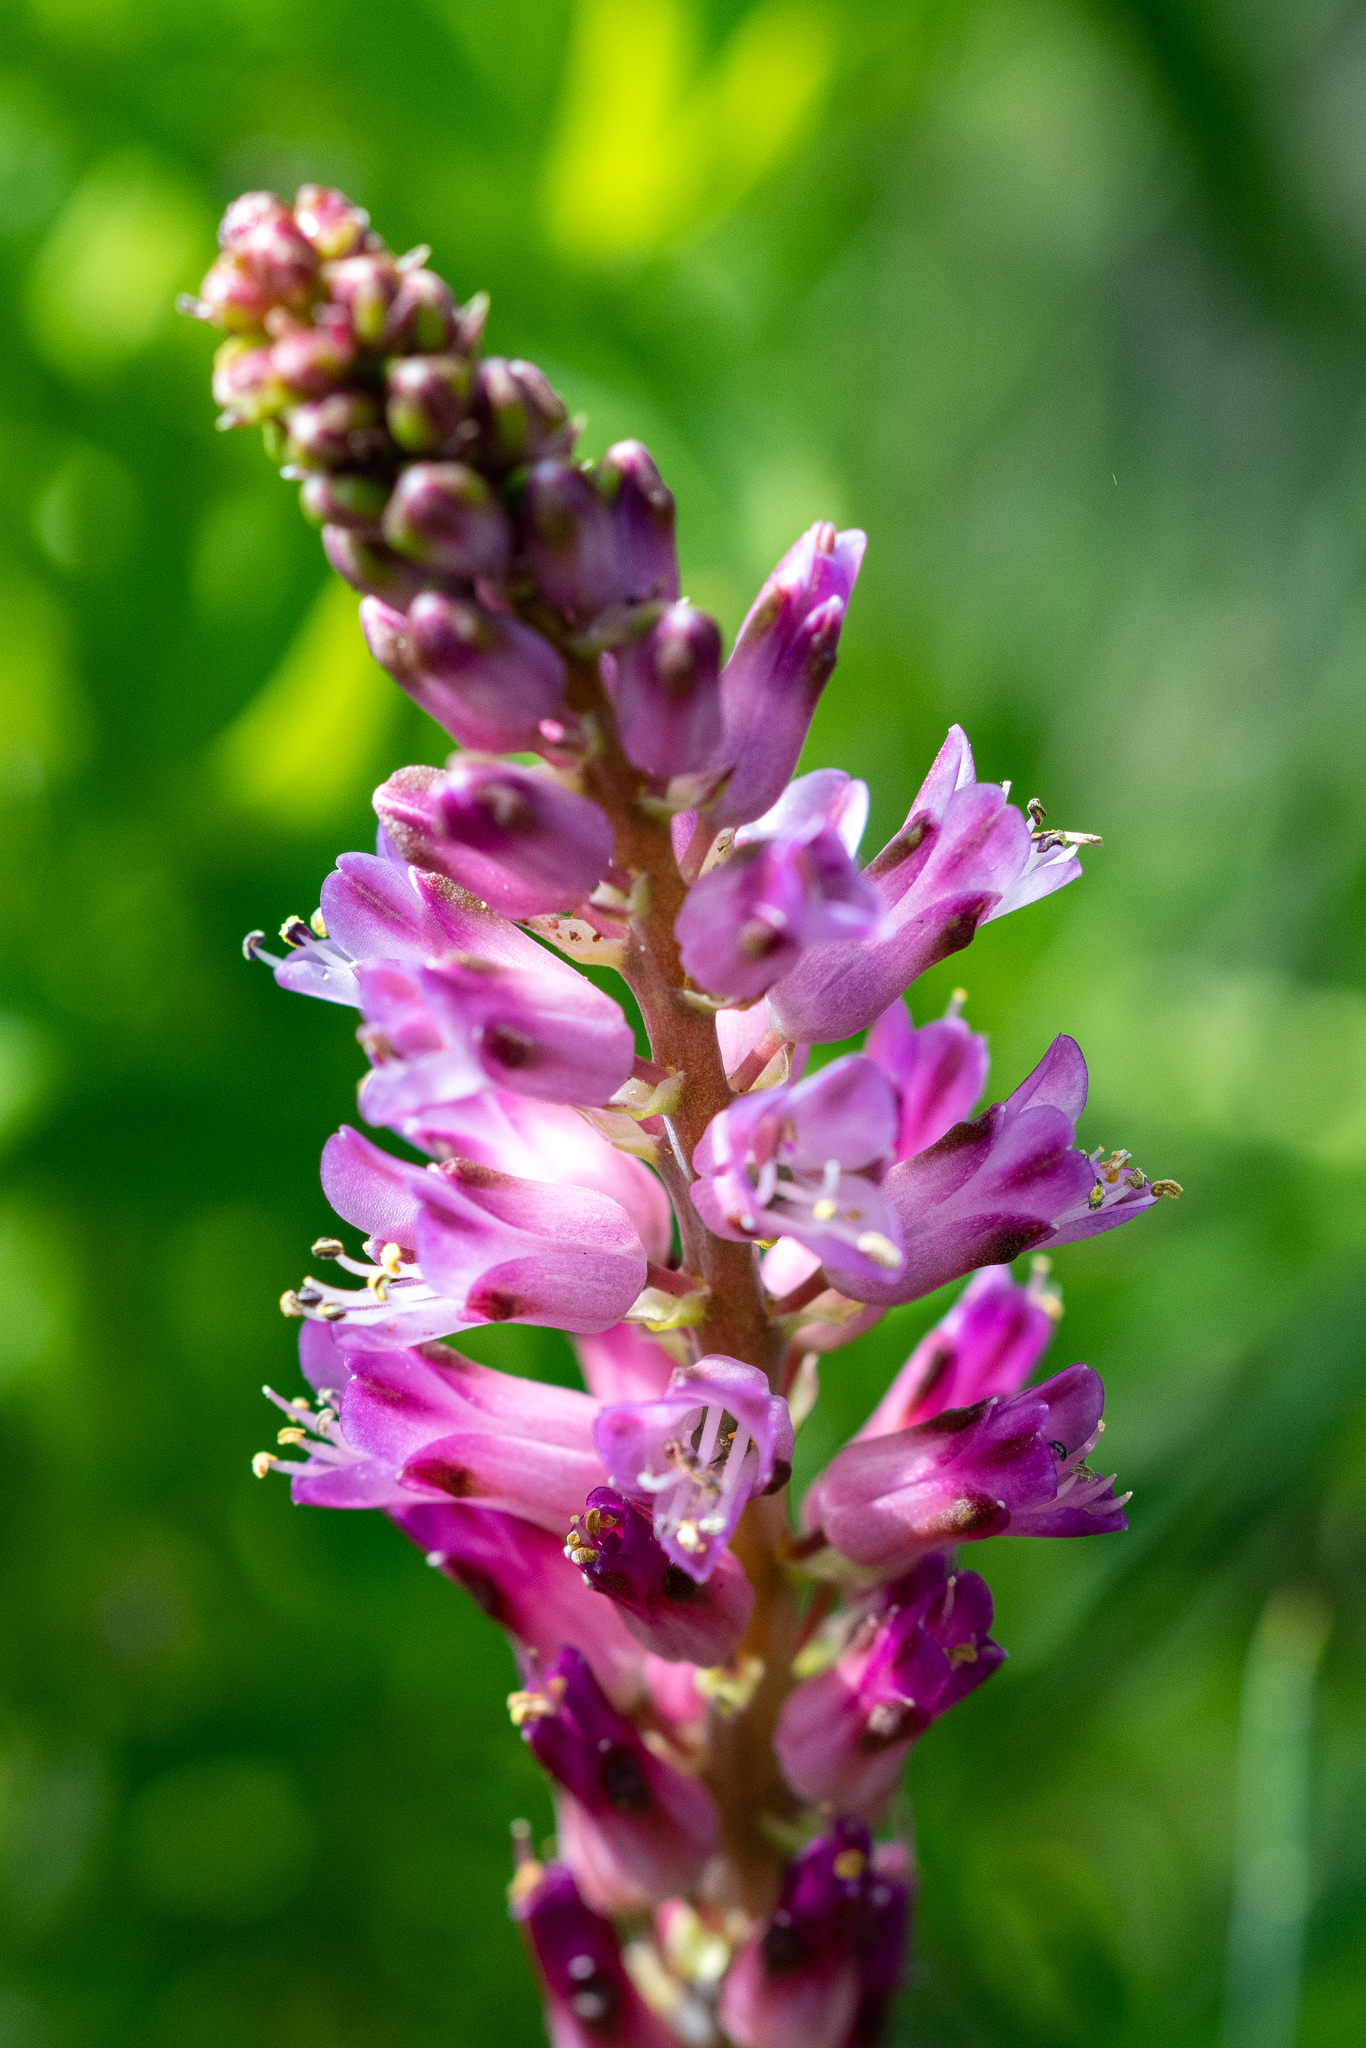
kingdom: Plantae
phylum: Tracheophyta
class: Liliopsida
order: Asparagales
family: Asparagaceae
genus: Lachenalia
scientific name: Lachenalia salteri
